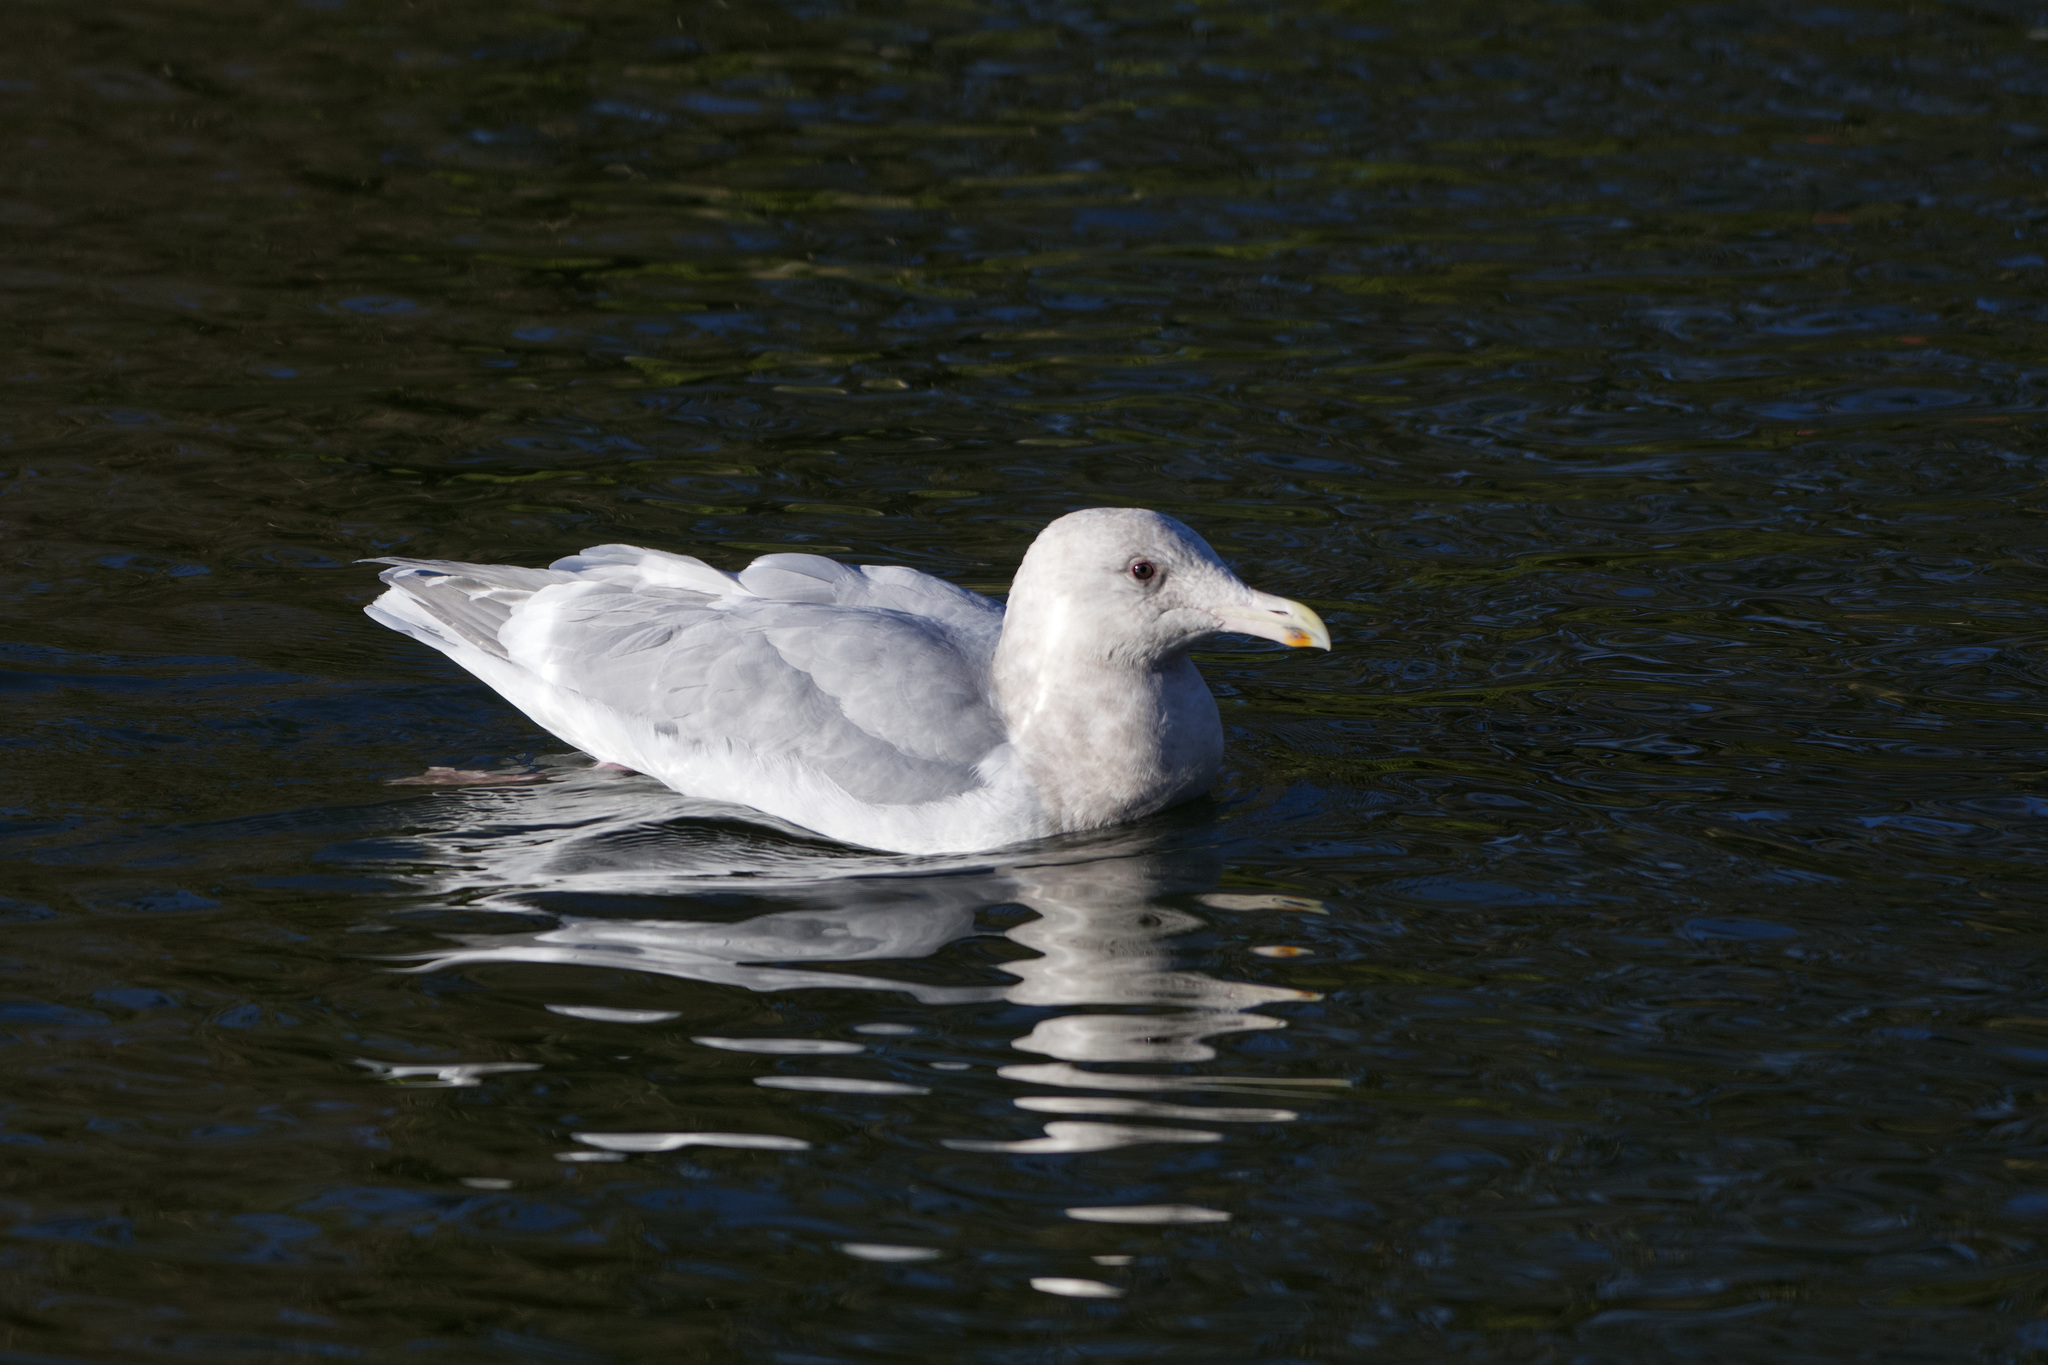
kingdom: Animalia
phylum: Chordata
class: Aves
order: Charadriiformes
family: Laridae
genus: Larus
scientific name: Larus glaucescens
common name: Glaucous-winged gull
